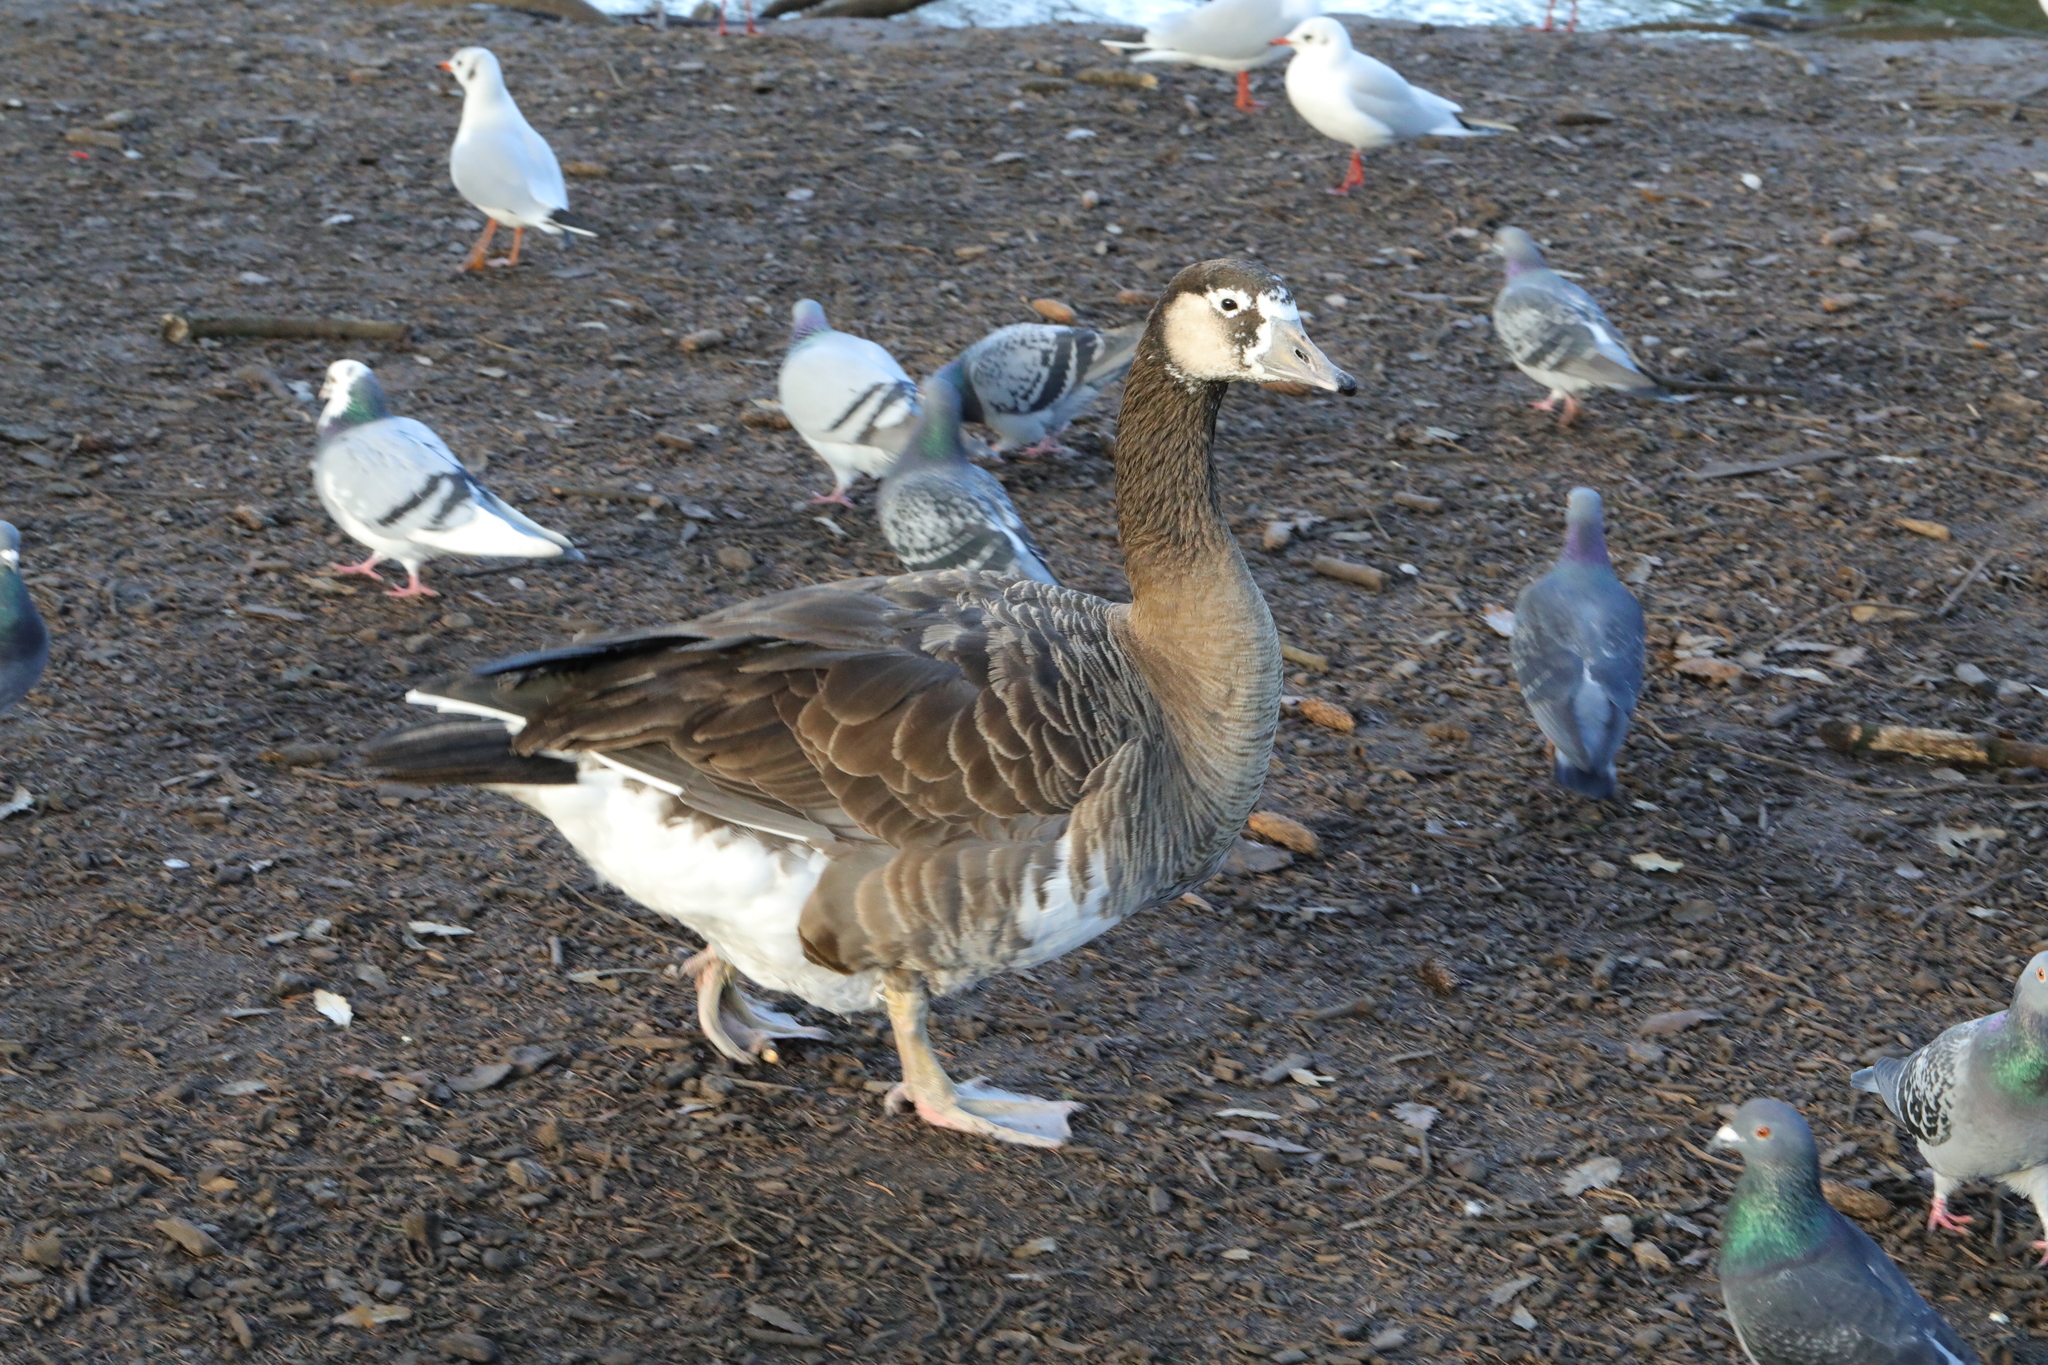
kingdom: Animalia
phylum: Chordata
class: Aves
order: Anseriformes
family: Anatidae
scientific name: Anatidae
